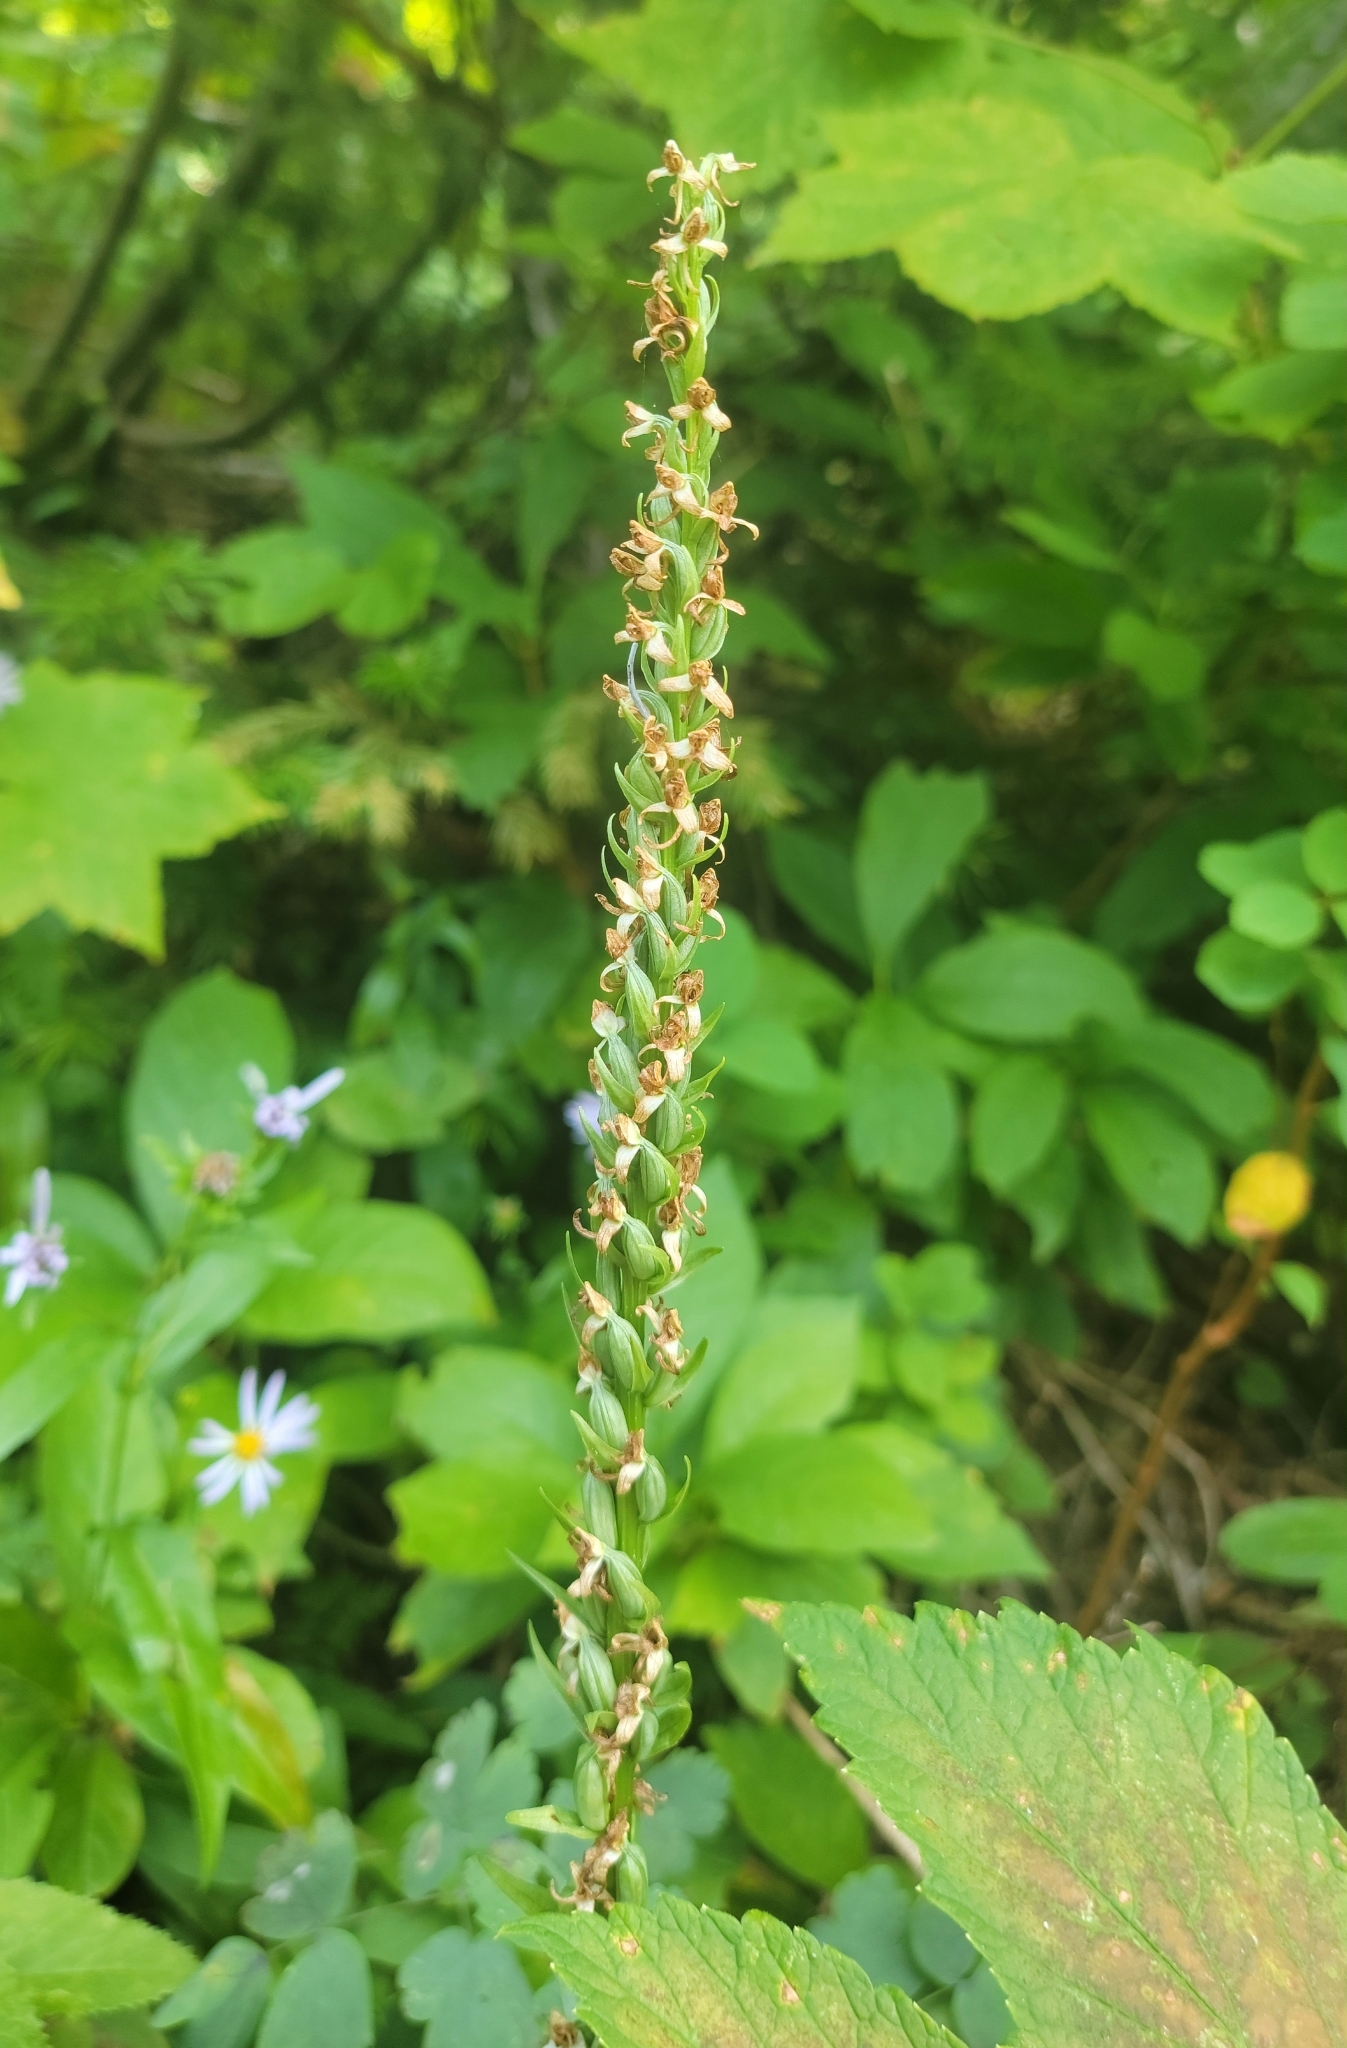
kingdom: Plantae
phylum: Tracheophyta
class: Liliopsida
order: Asparagales
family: Orchidaceae
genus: Platanthera
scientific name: Platanthera dilatata
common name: Bog candles
